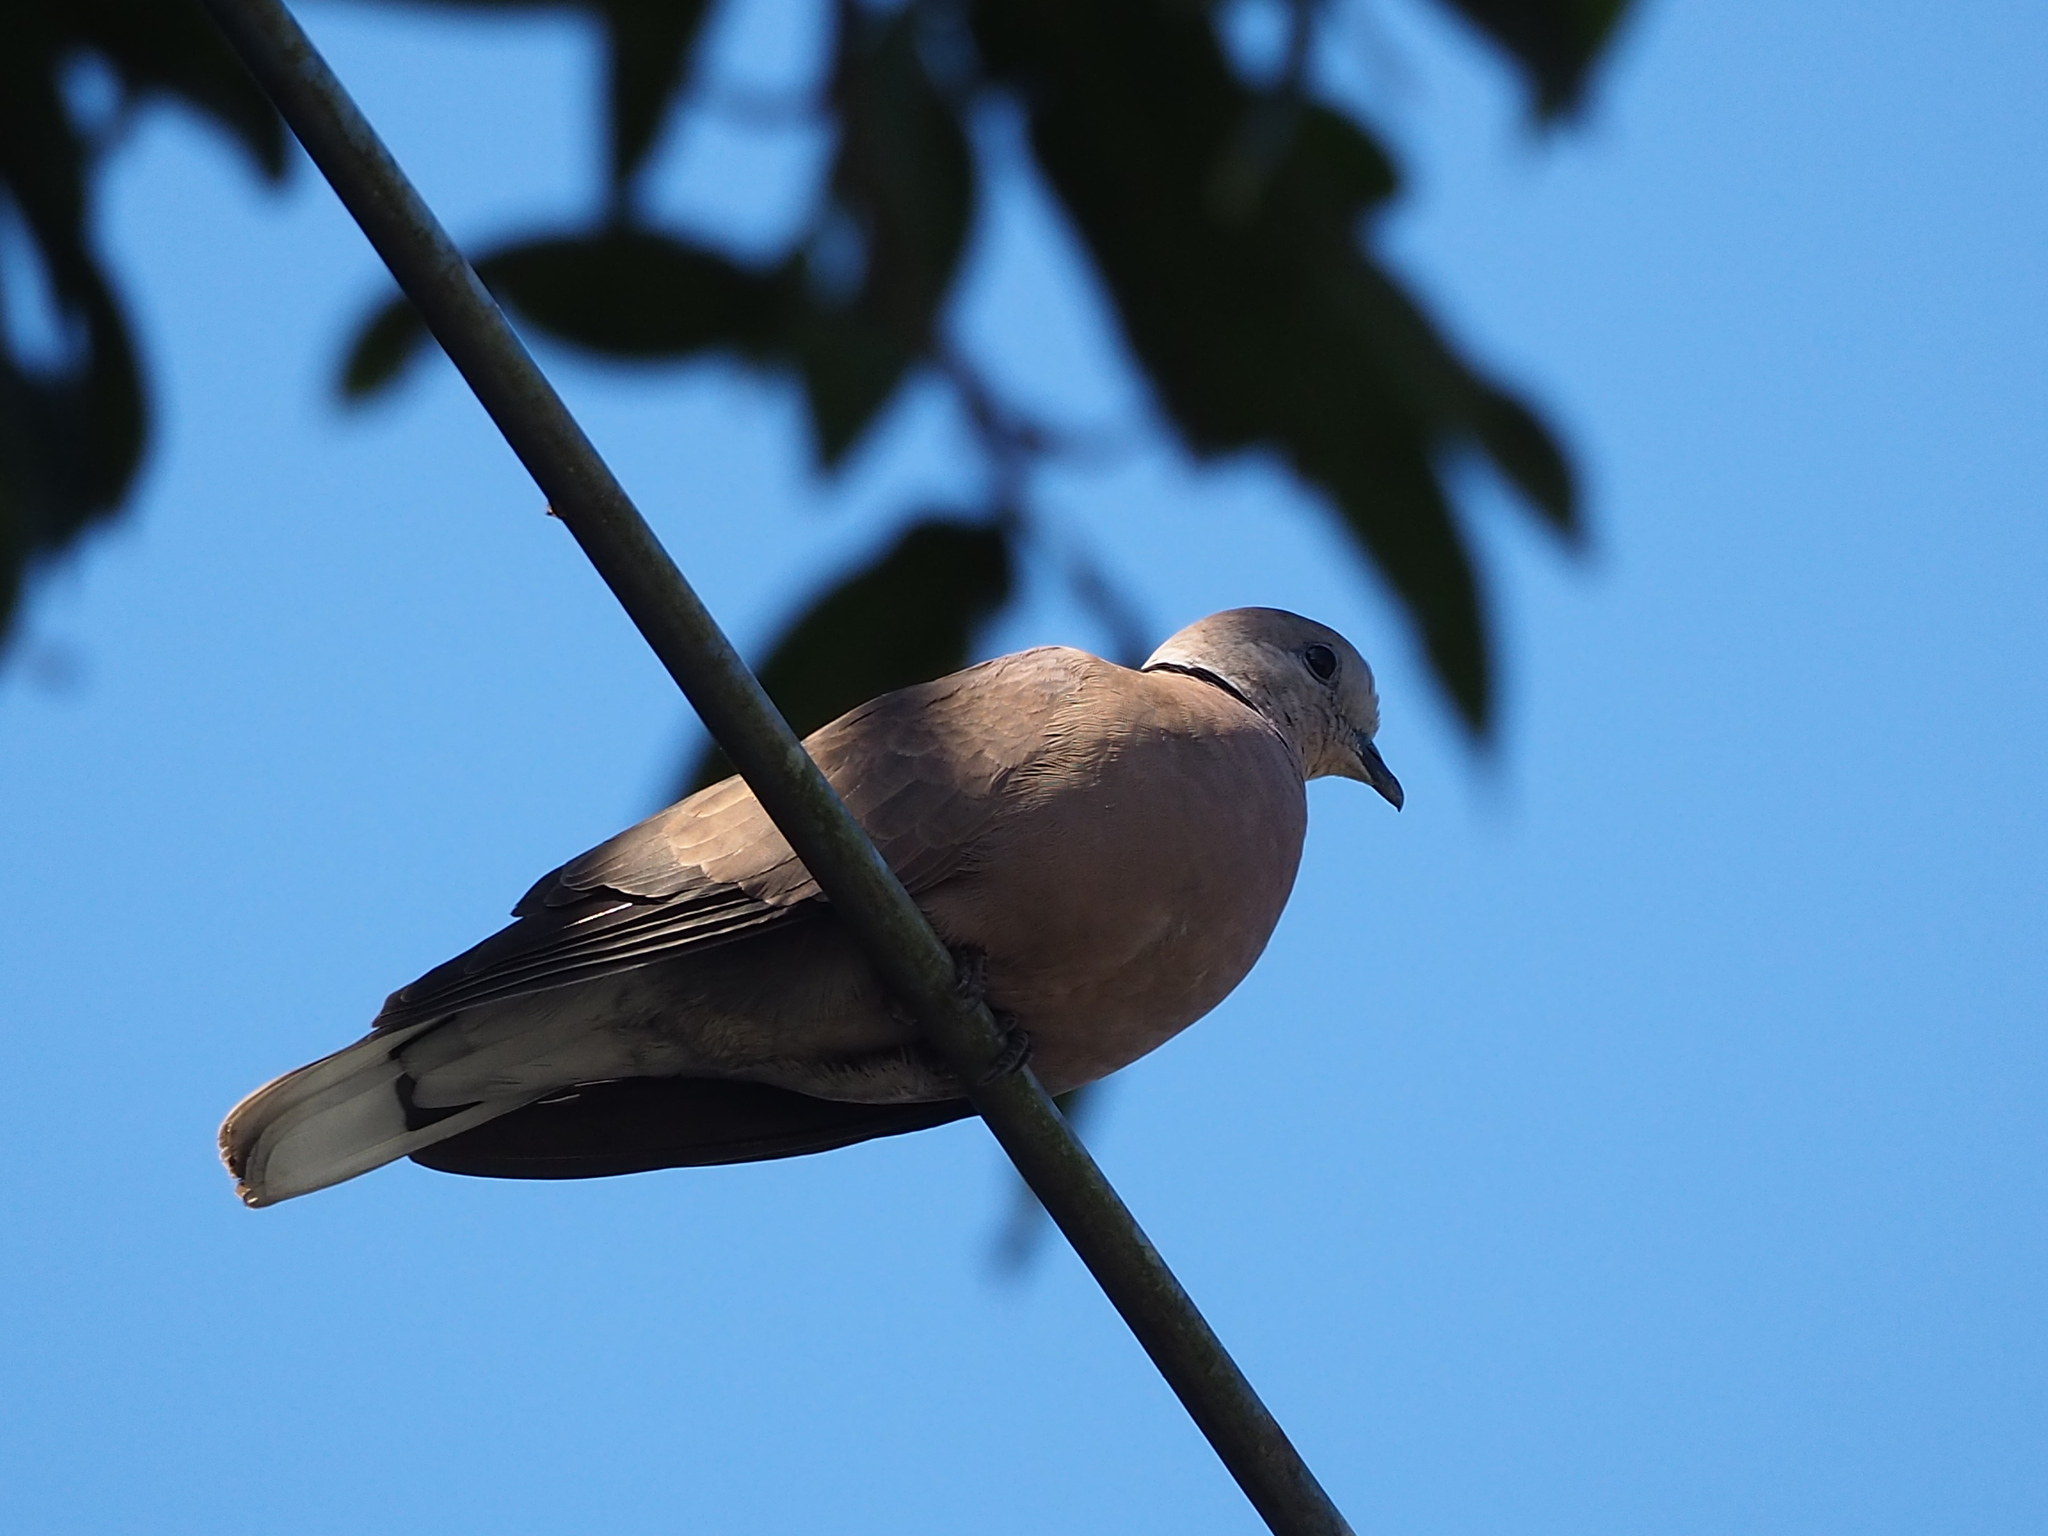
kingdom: Animalia
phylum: Chordata
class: Aves
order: Columbiformes
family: Columbidae
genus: Streptopelia
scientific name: Streptopelia tranquebarica
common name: Red turtle dove
